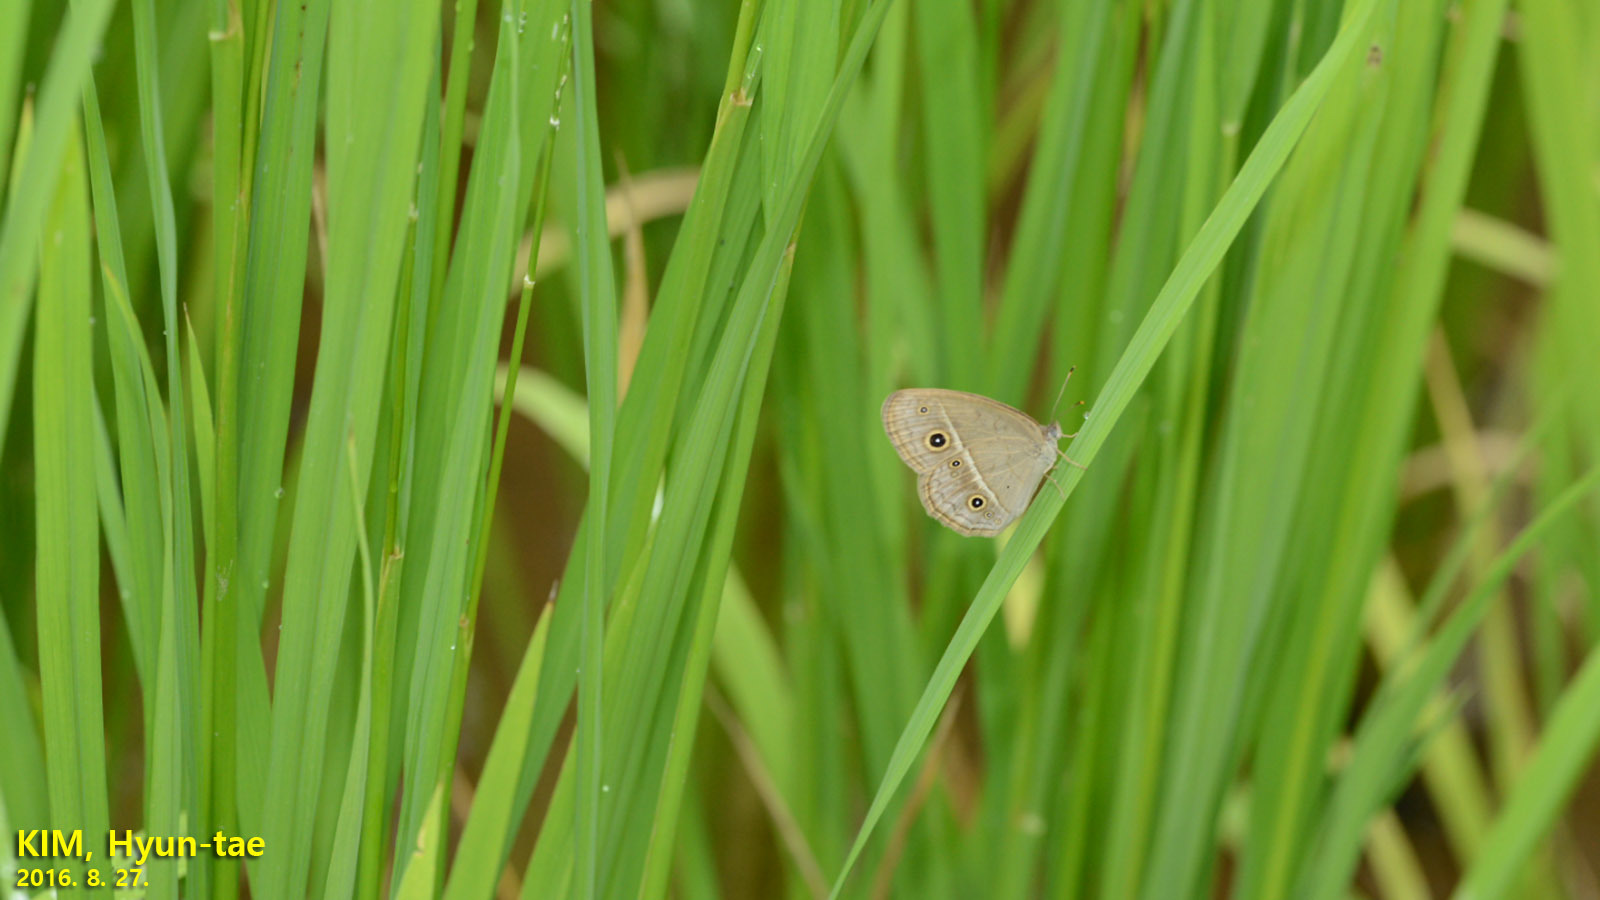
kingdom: Animalia
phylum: Arthropoda
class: Insecta
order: Lepidoptera
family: Nymphalidae
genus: Mycalesis
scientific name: Mycalesis gotama
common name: Chinese bushbrown
